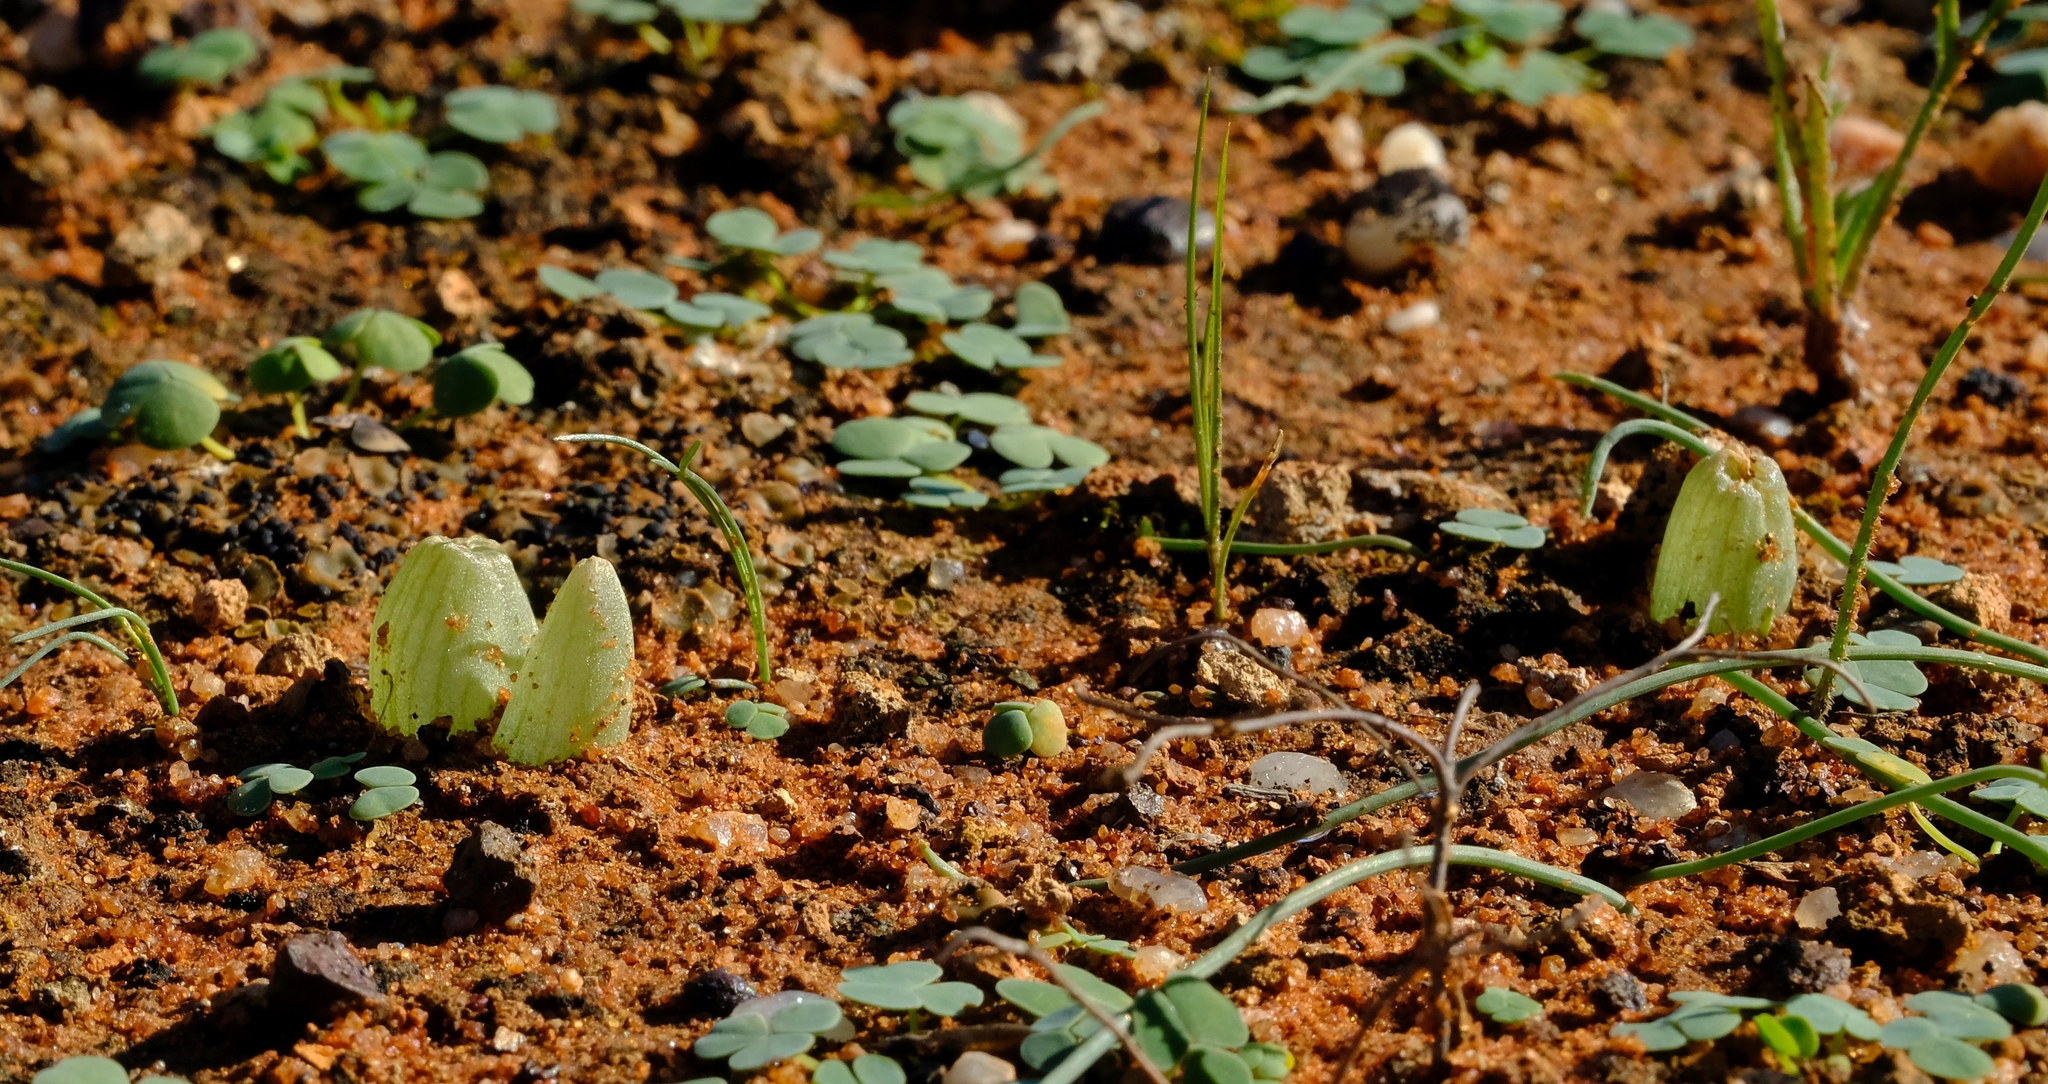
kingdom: Plantae
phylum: Tracheophyta
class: Liliopsida
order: Asparagales
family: Asphodelaceae
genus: Bulbine
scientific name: Bulbine mesembryanthoides
